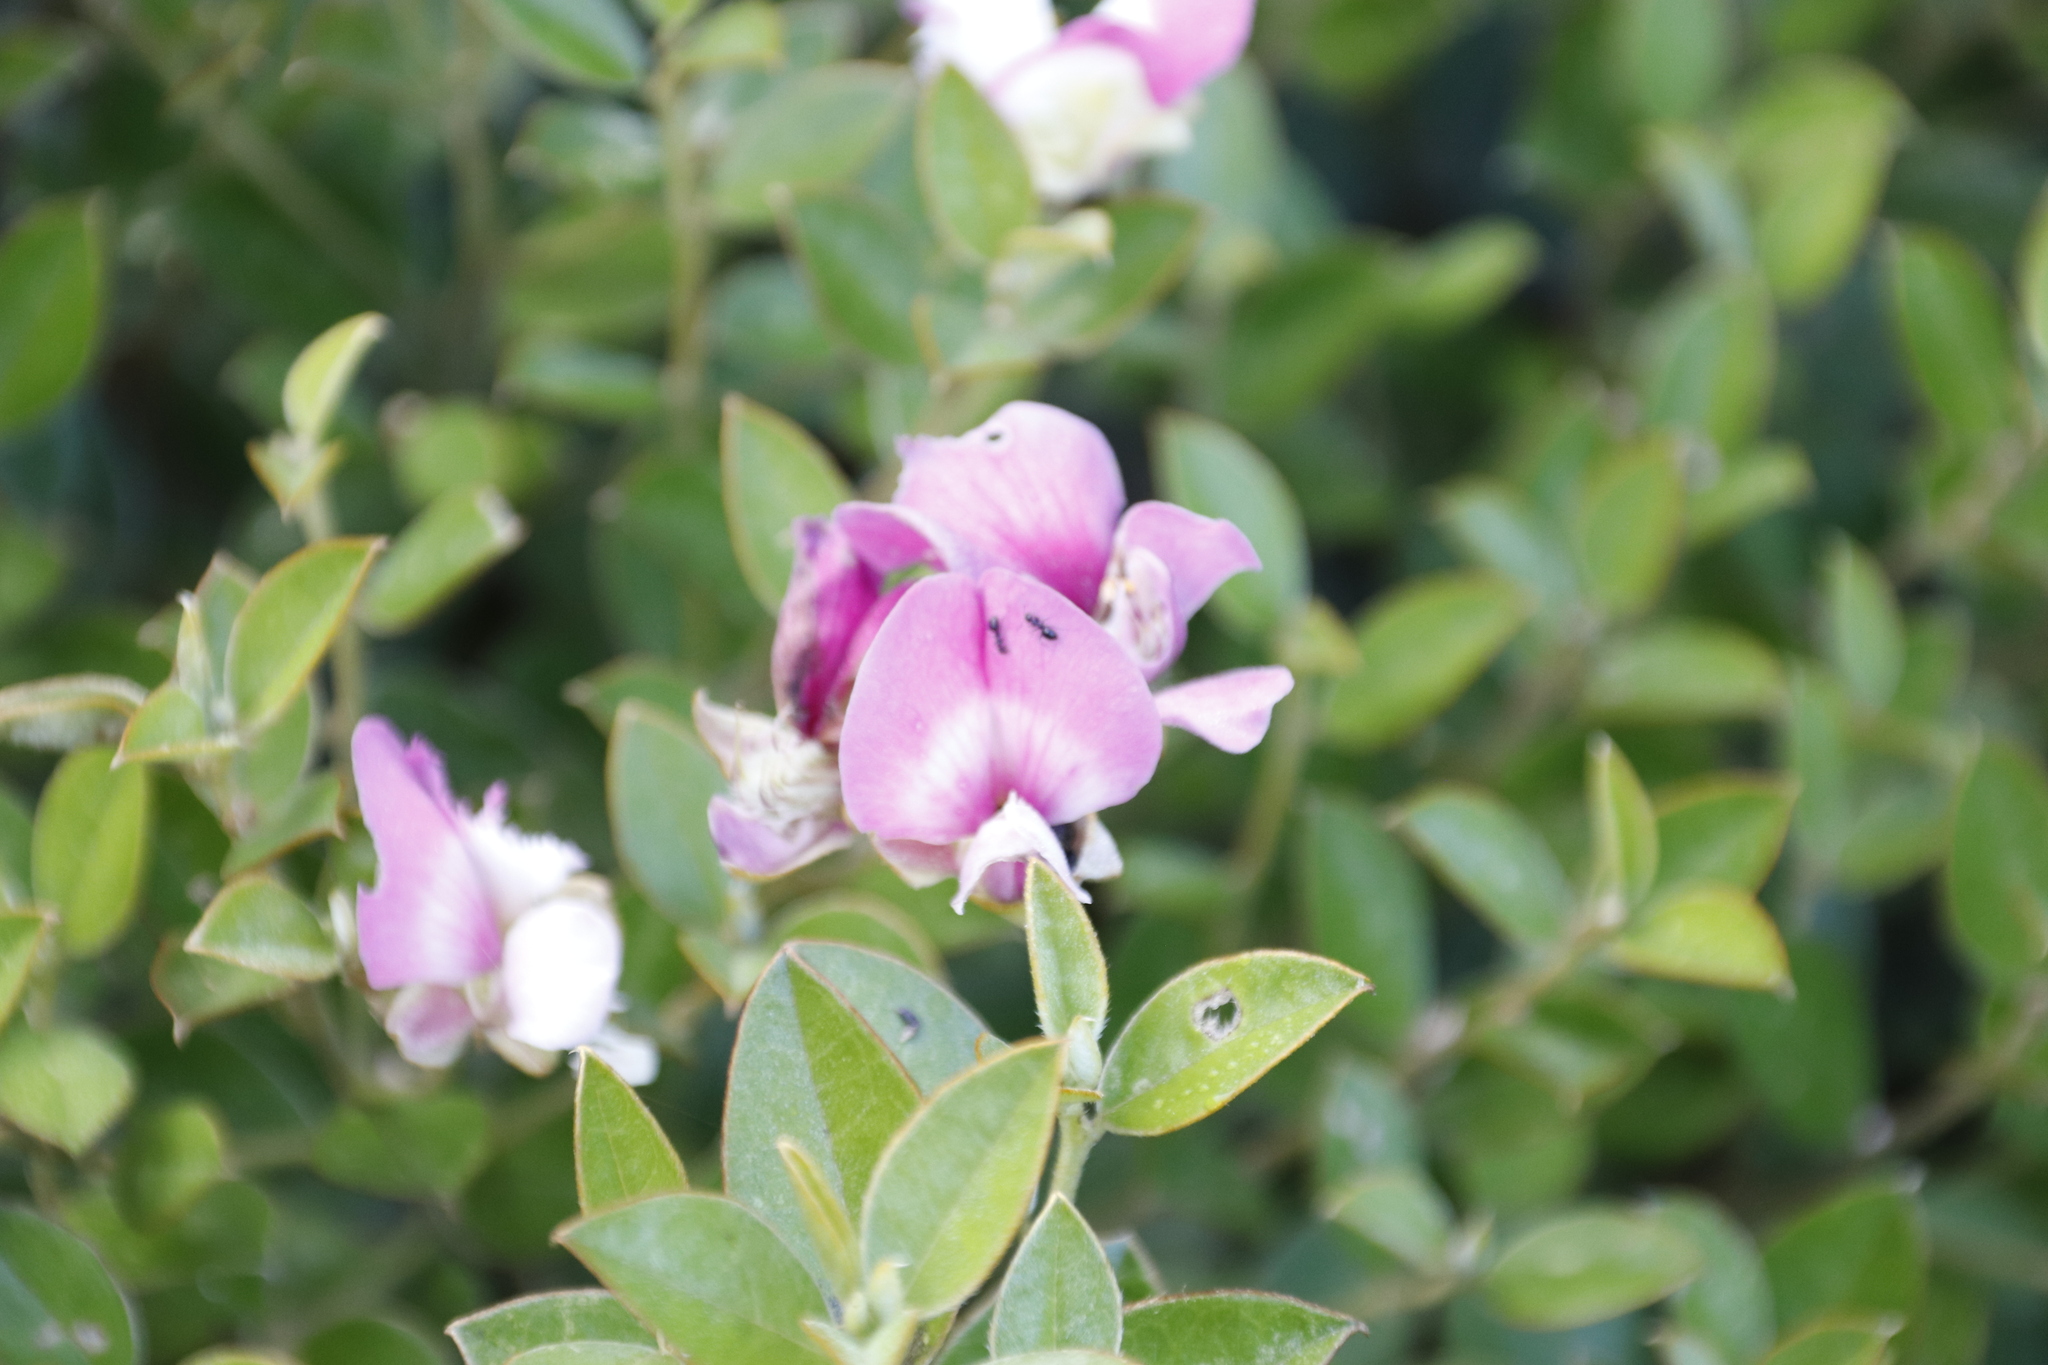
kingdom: Plantae
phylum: Tracheophyta
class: Magnoliopsida
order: Fabales
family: Fabaceae
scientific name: Fabaceae
